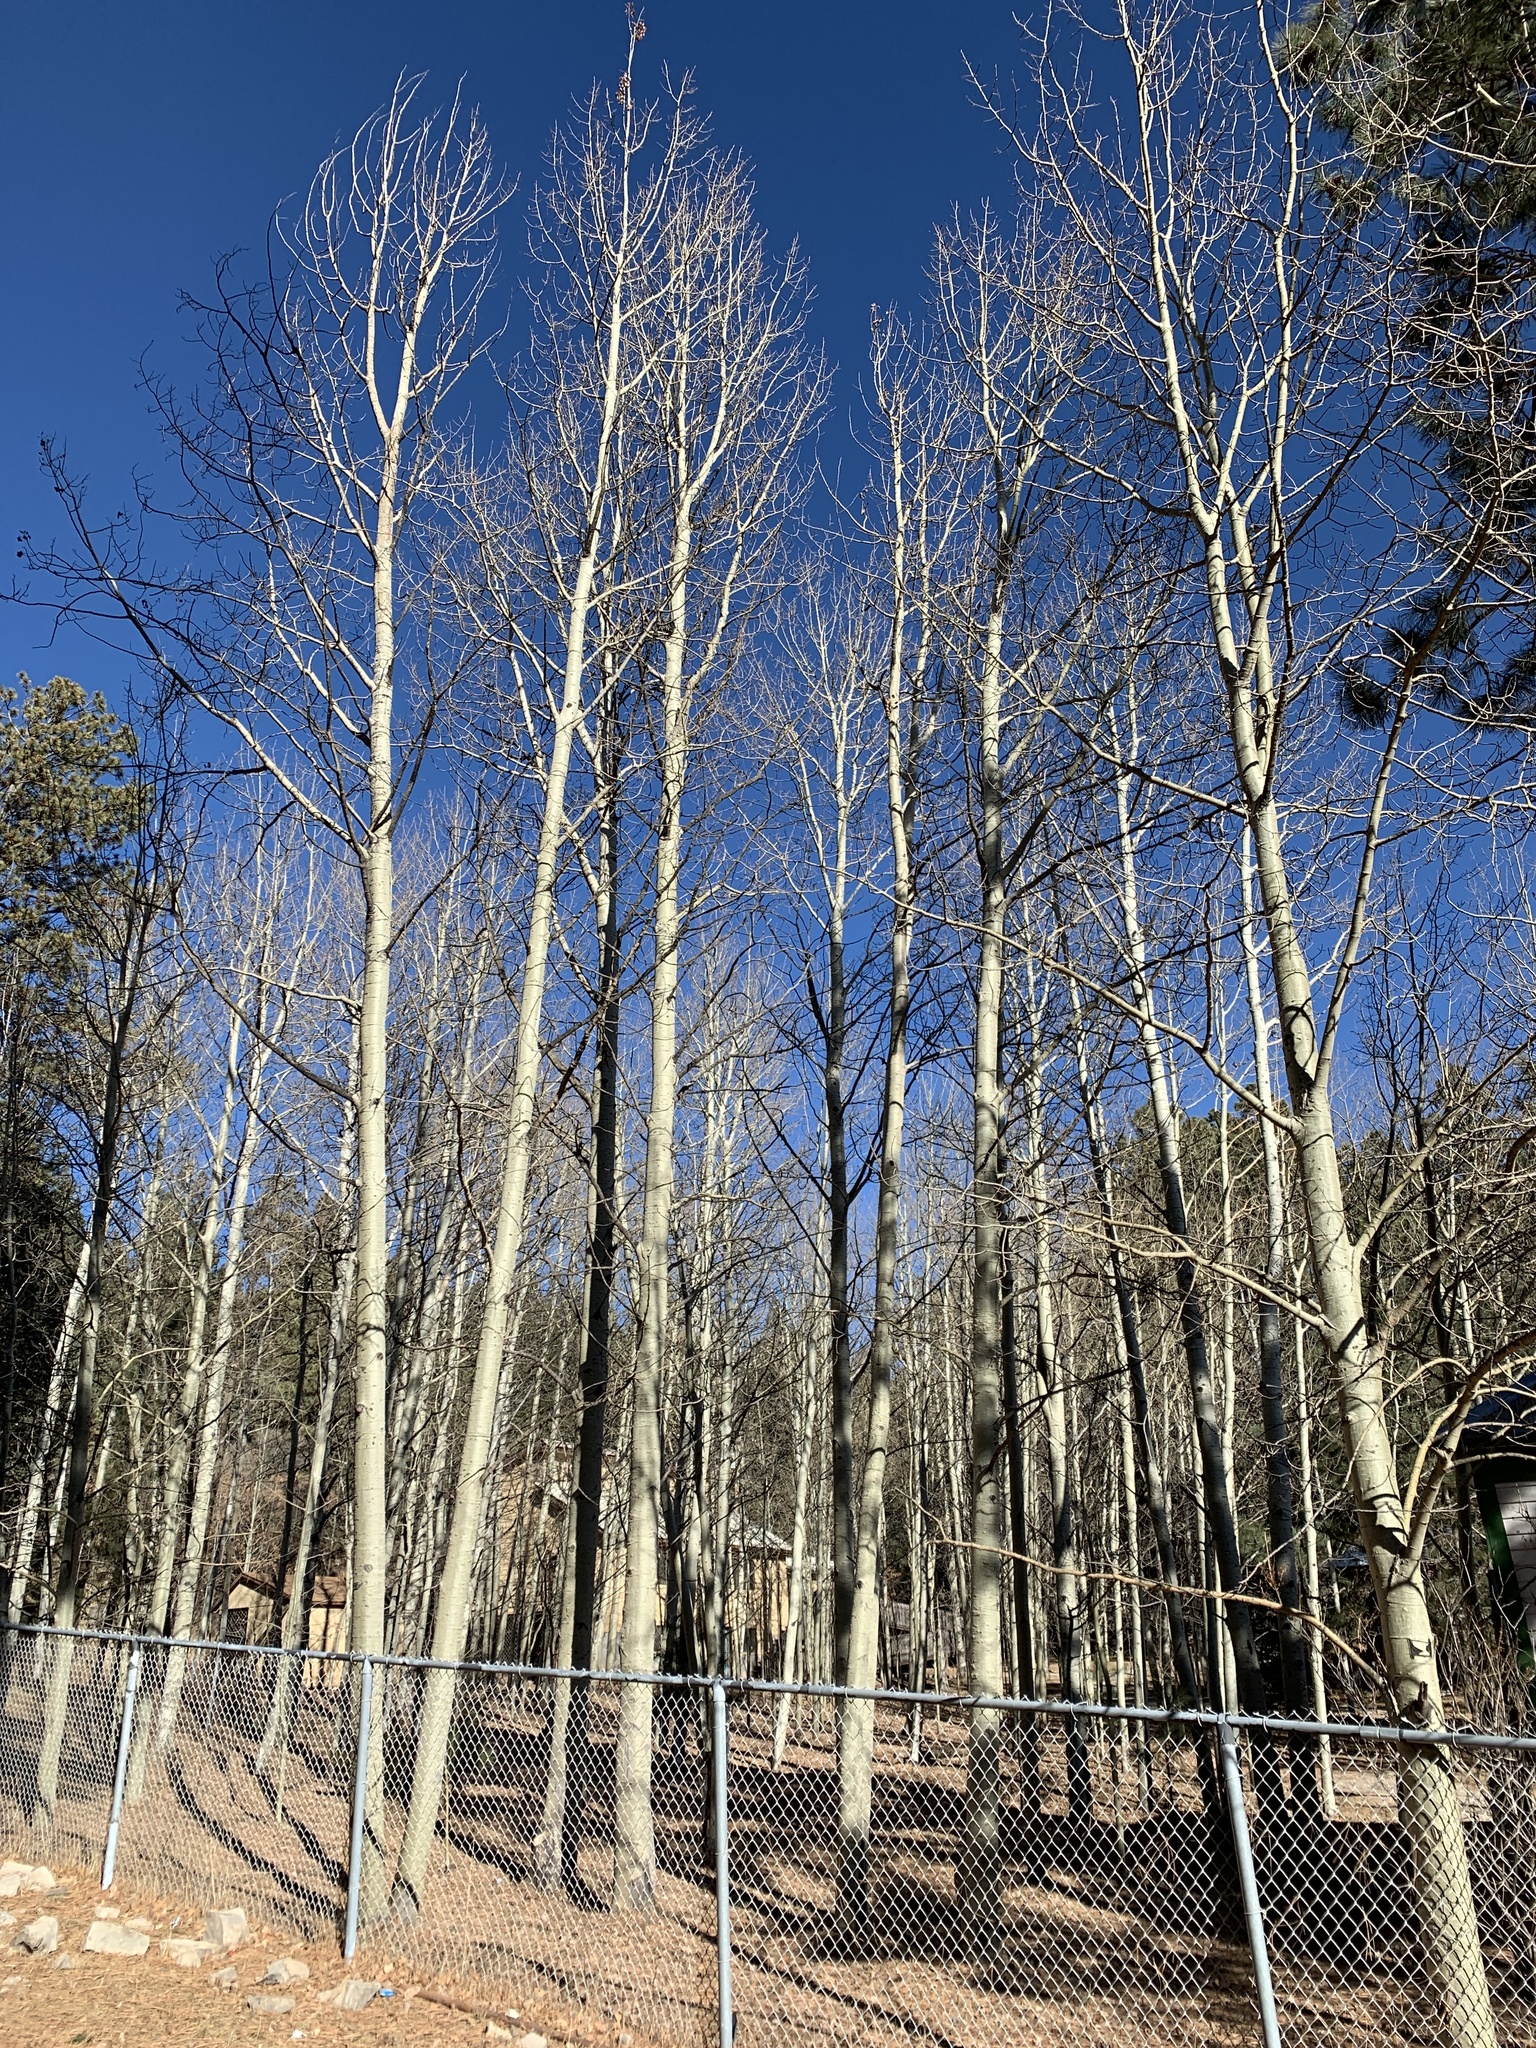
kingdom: Plantae
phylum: Tracheophyta
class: Magnoliopsida
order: Malpighiales
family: Salicaceae
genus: Populus
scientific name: Populus tremuloides
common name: Quaking aspen
